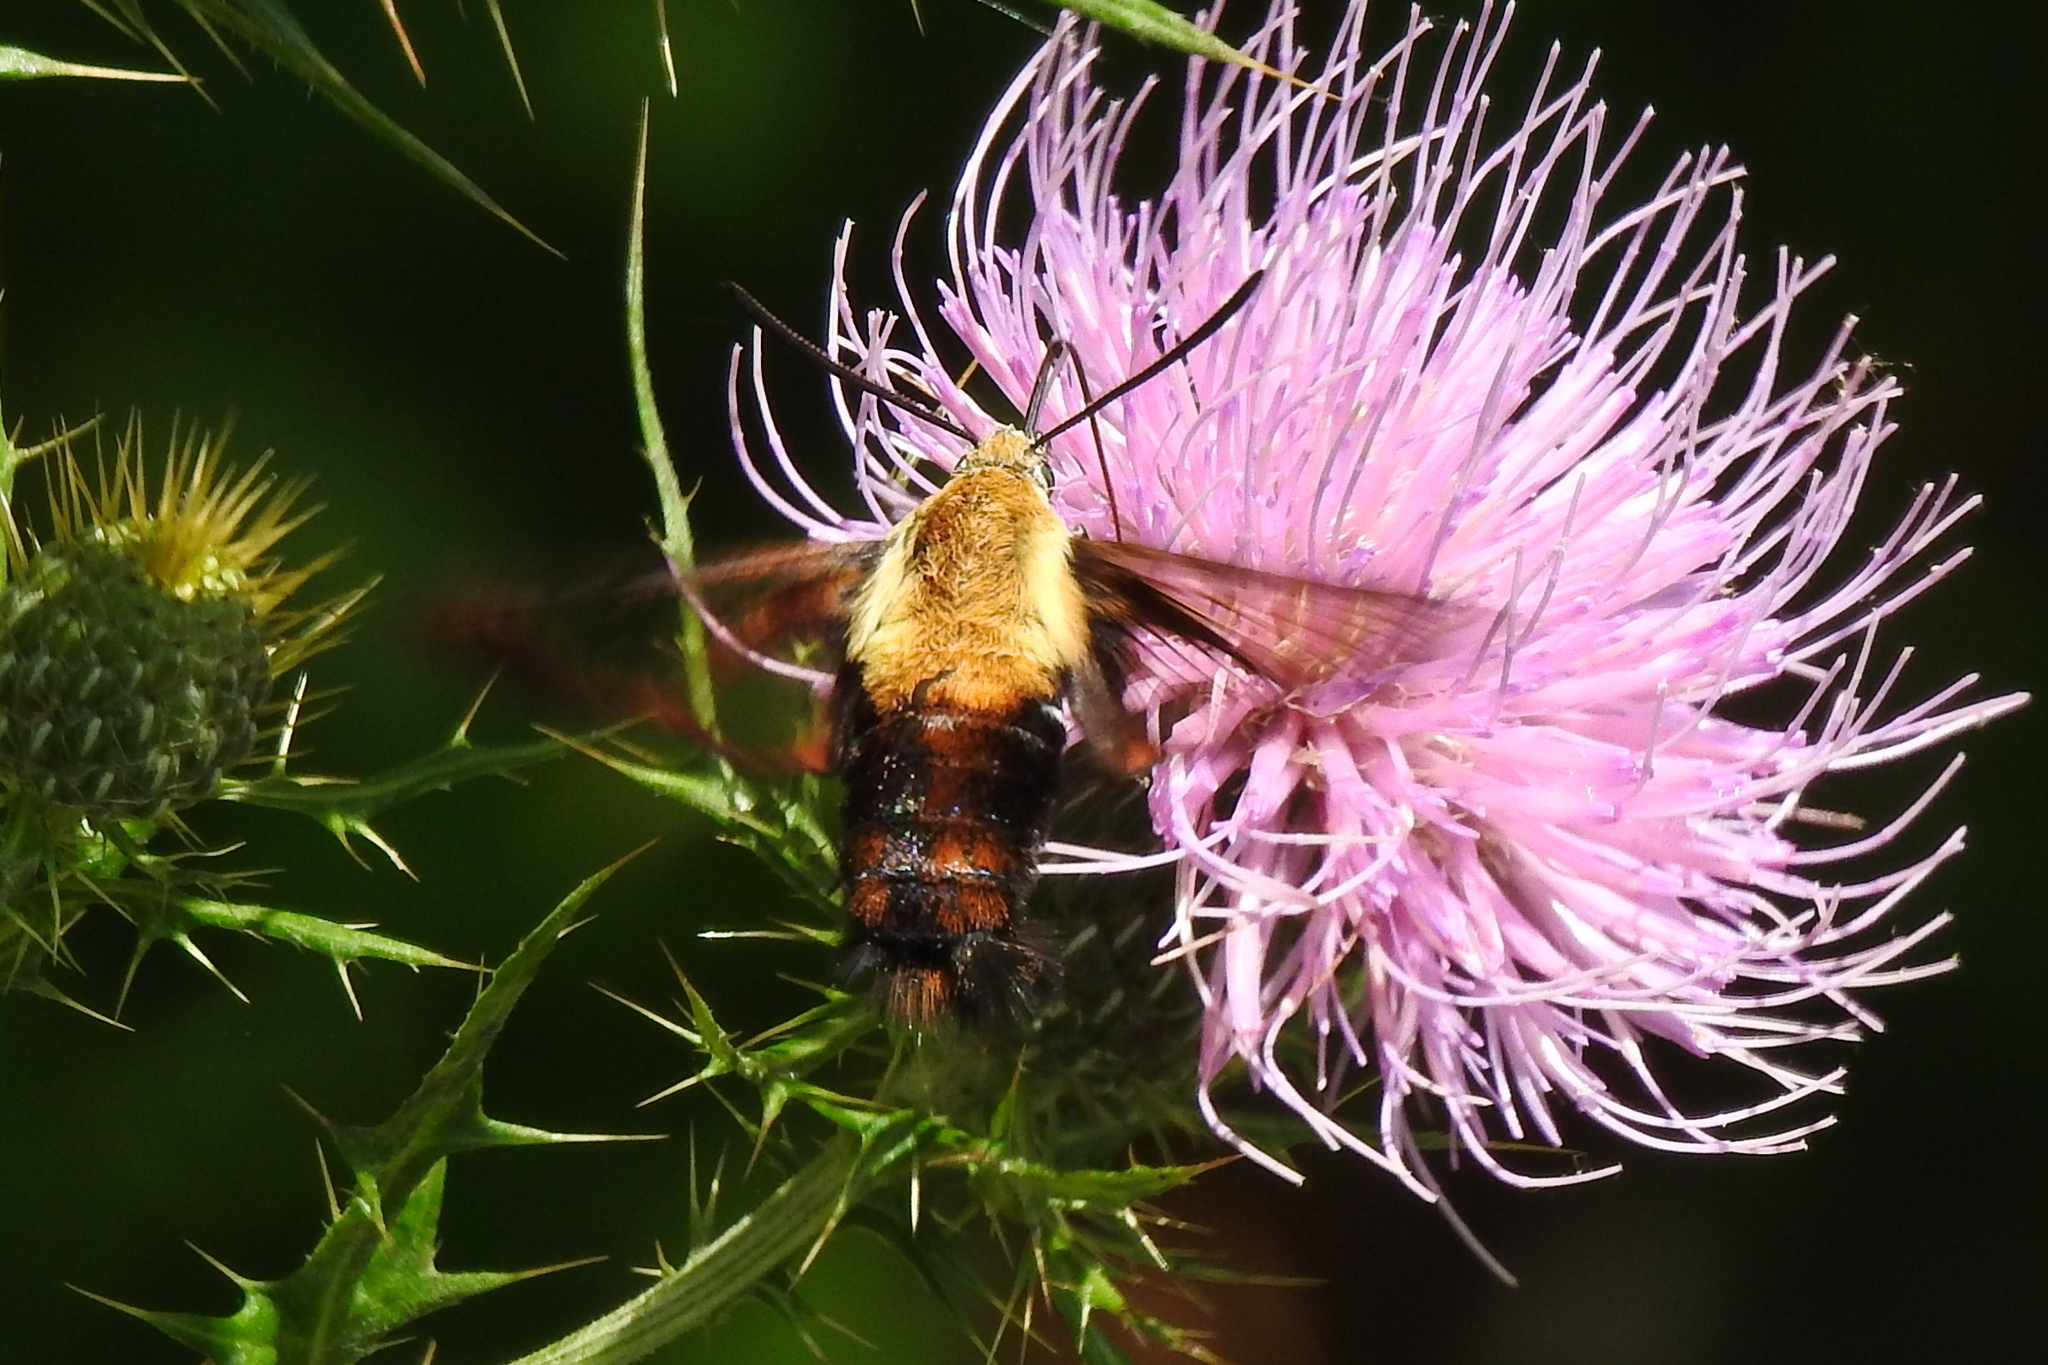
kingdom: Animalia
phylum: Arthropoda
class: Insecta
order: Lepidoptera
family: Sphingidae
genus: Hemaris
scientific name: Hemaris diffinis
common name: Bumblebee moth
